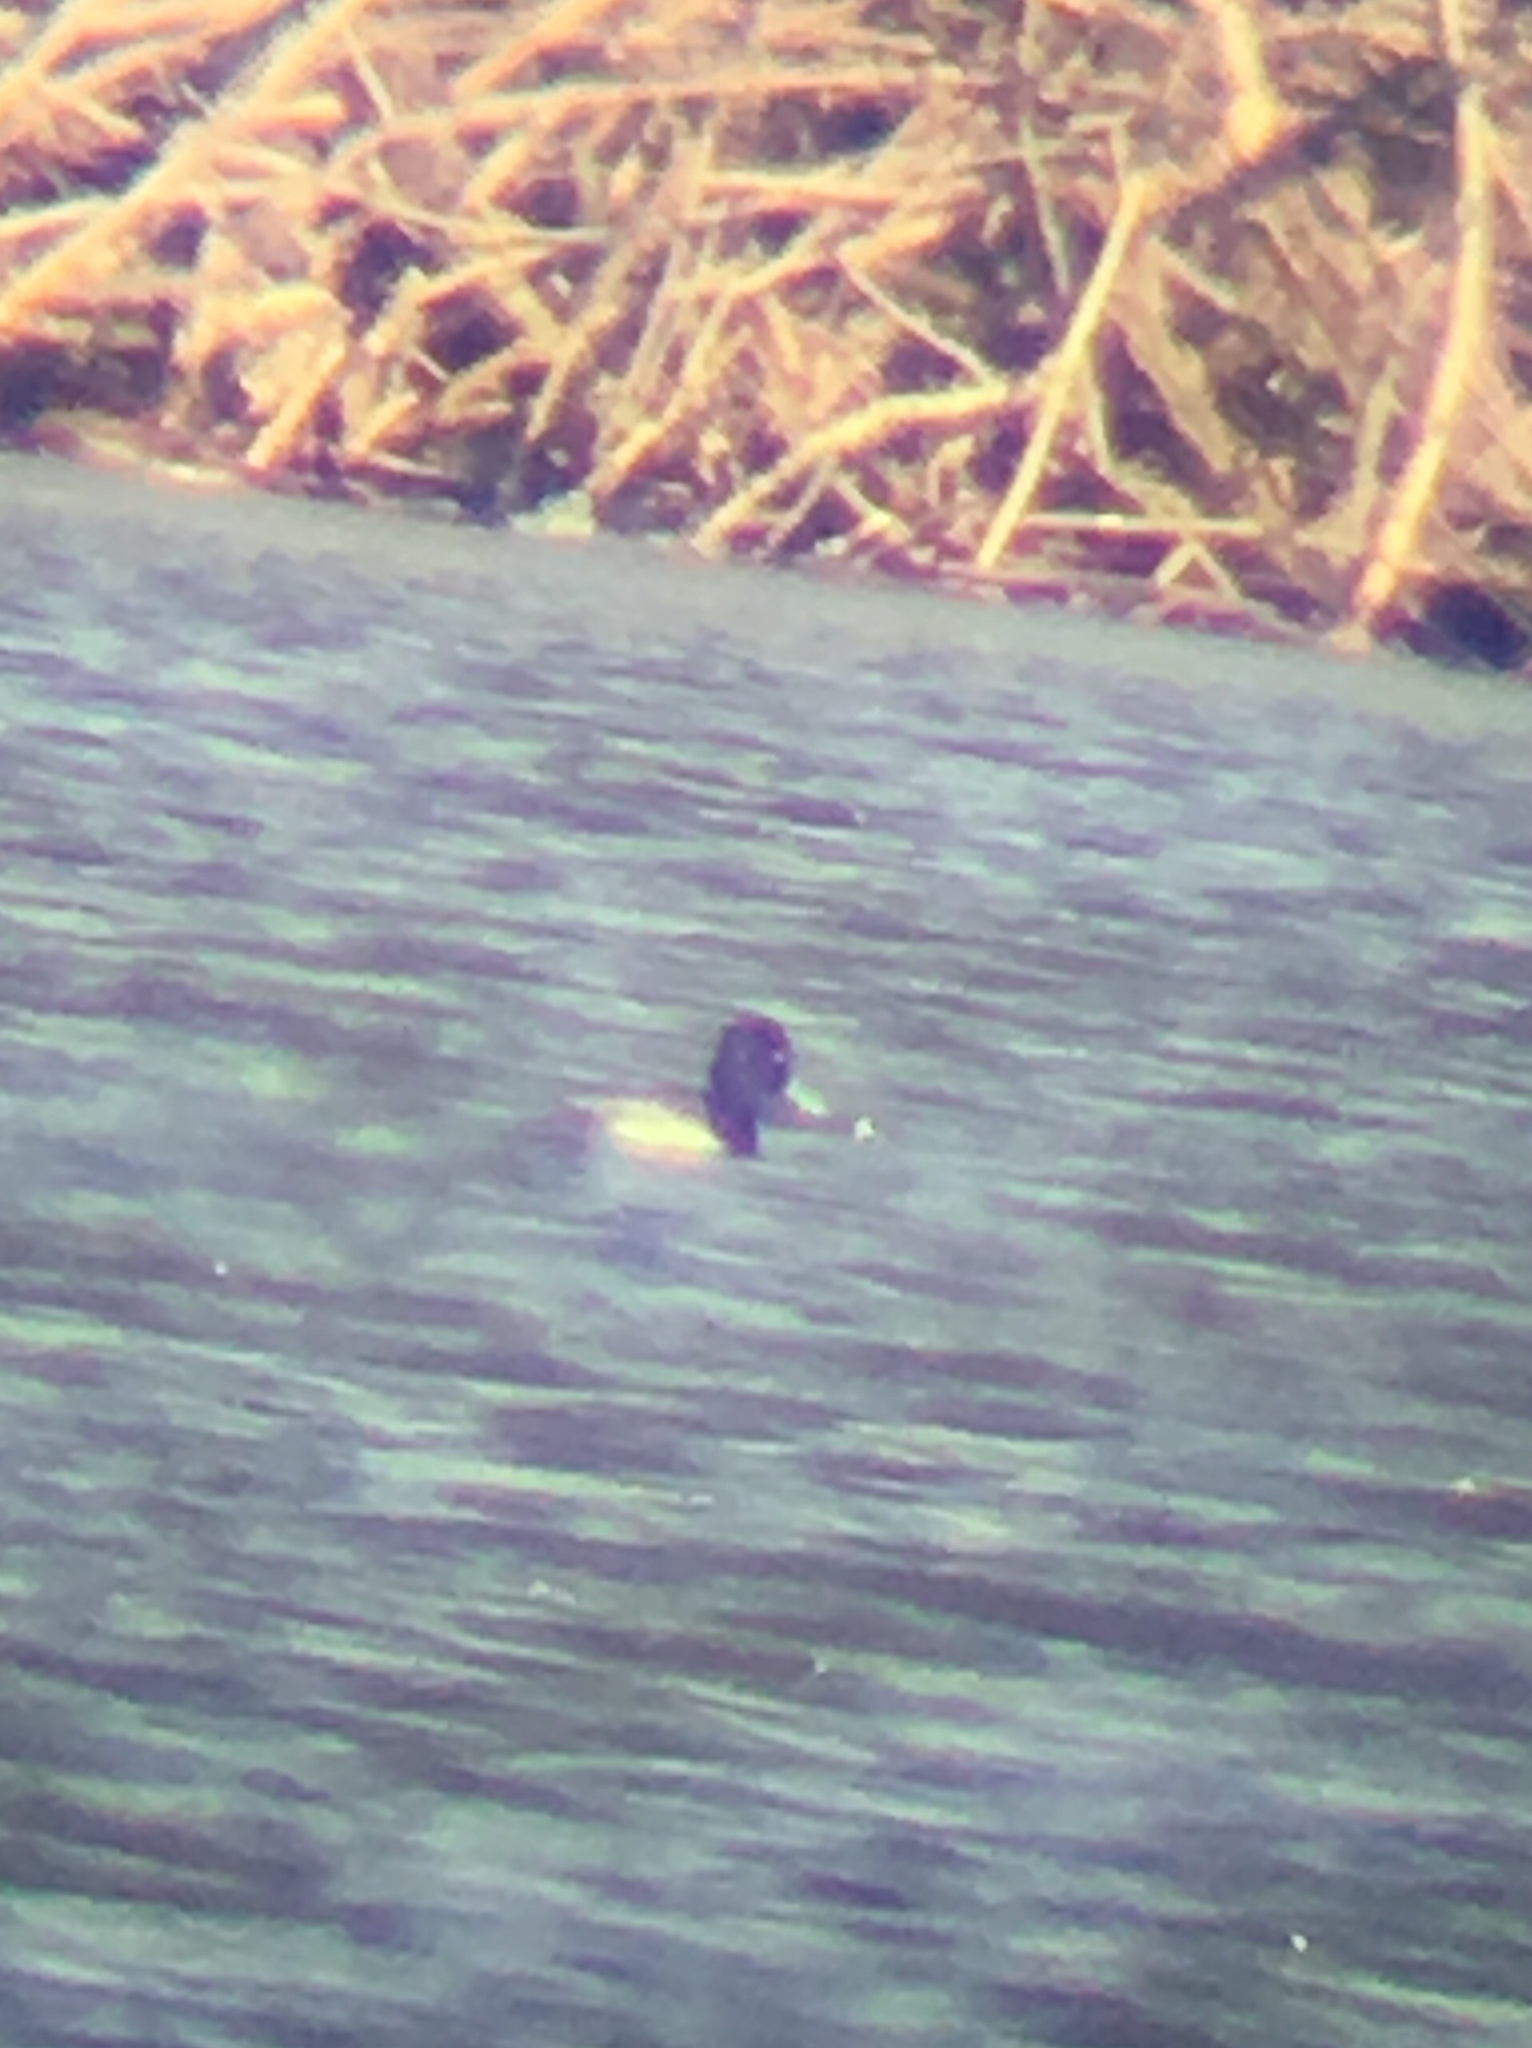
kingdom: Animalia
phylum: Chordata
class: Aves
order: Anseriformes
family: Anatidae
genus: Aythya
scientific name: Aythya affinis
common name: Lesser scaup
